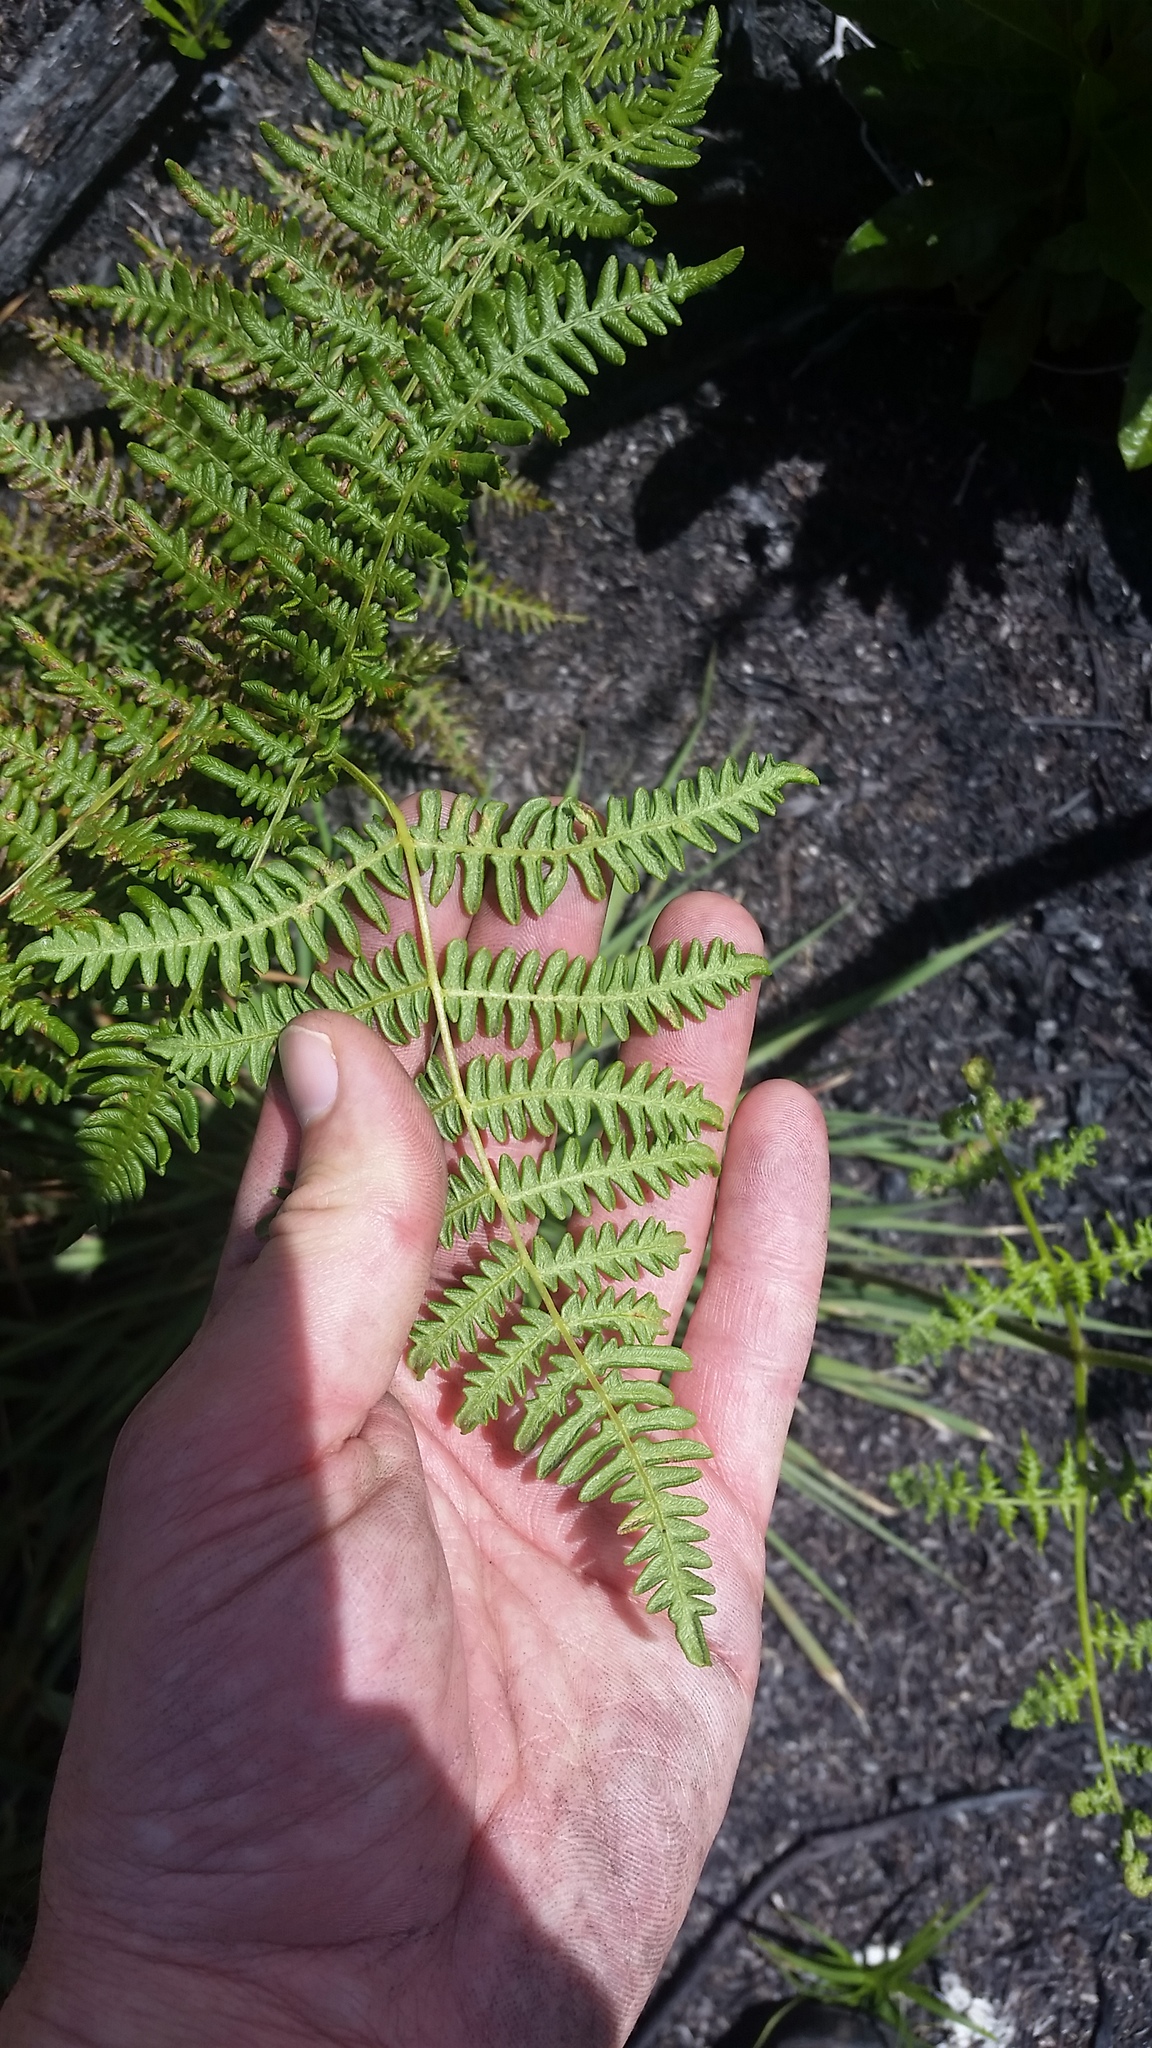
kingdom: Plantae
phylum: Tracheophyta
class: Polypodiopsida
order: Polypodiales
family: Dennstaedtiaceae
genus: Pteridium
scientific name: Pteridium aquilinum
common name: Bracken
